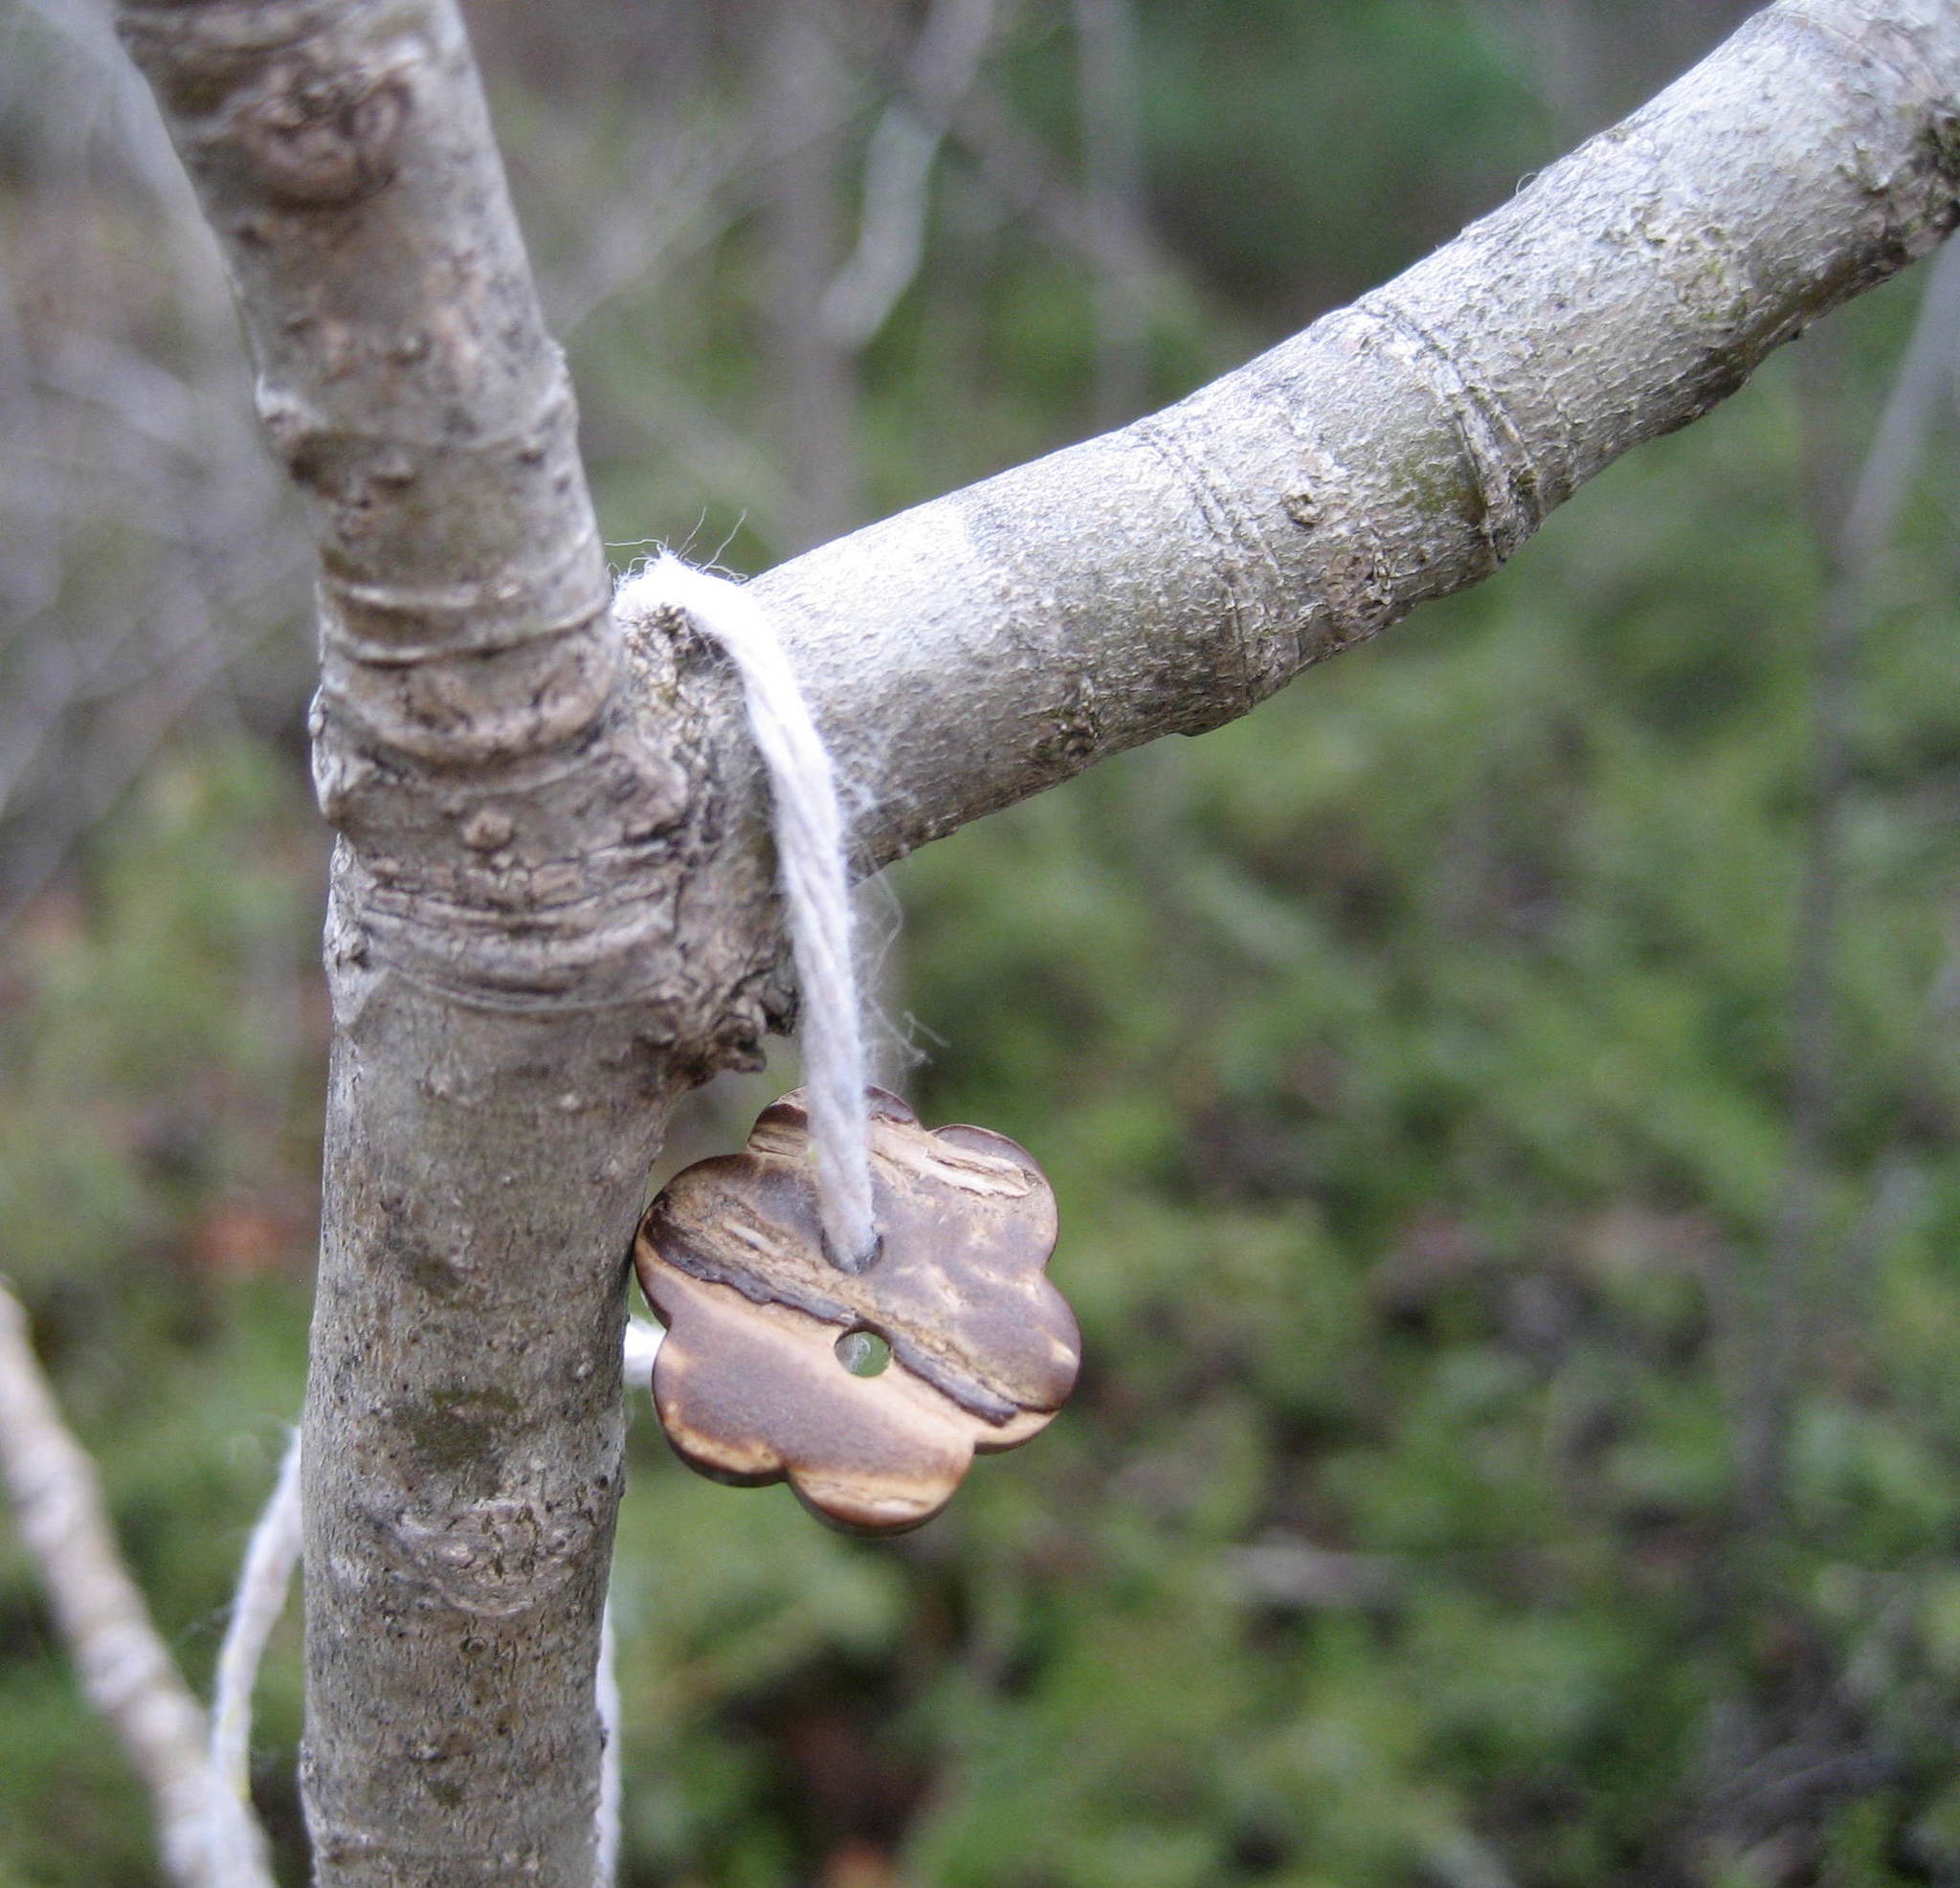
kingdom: Plantae
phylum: Tracheophyta
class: Magnoliopsida
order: Lamiales
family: Oleaceae
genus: Fraxinus
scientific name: Fraxinus americana
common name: White ash
